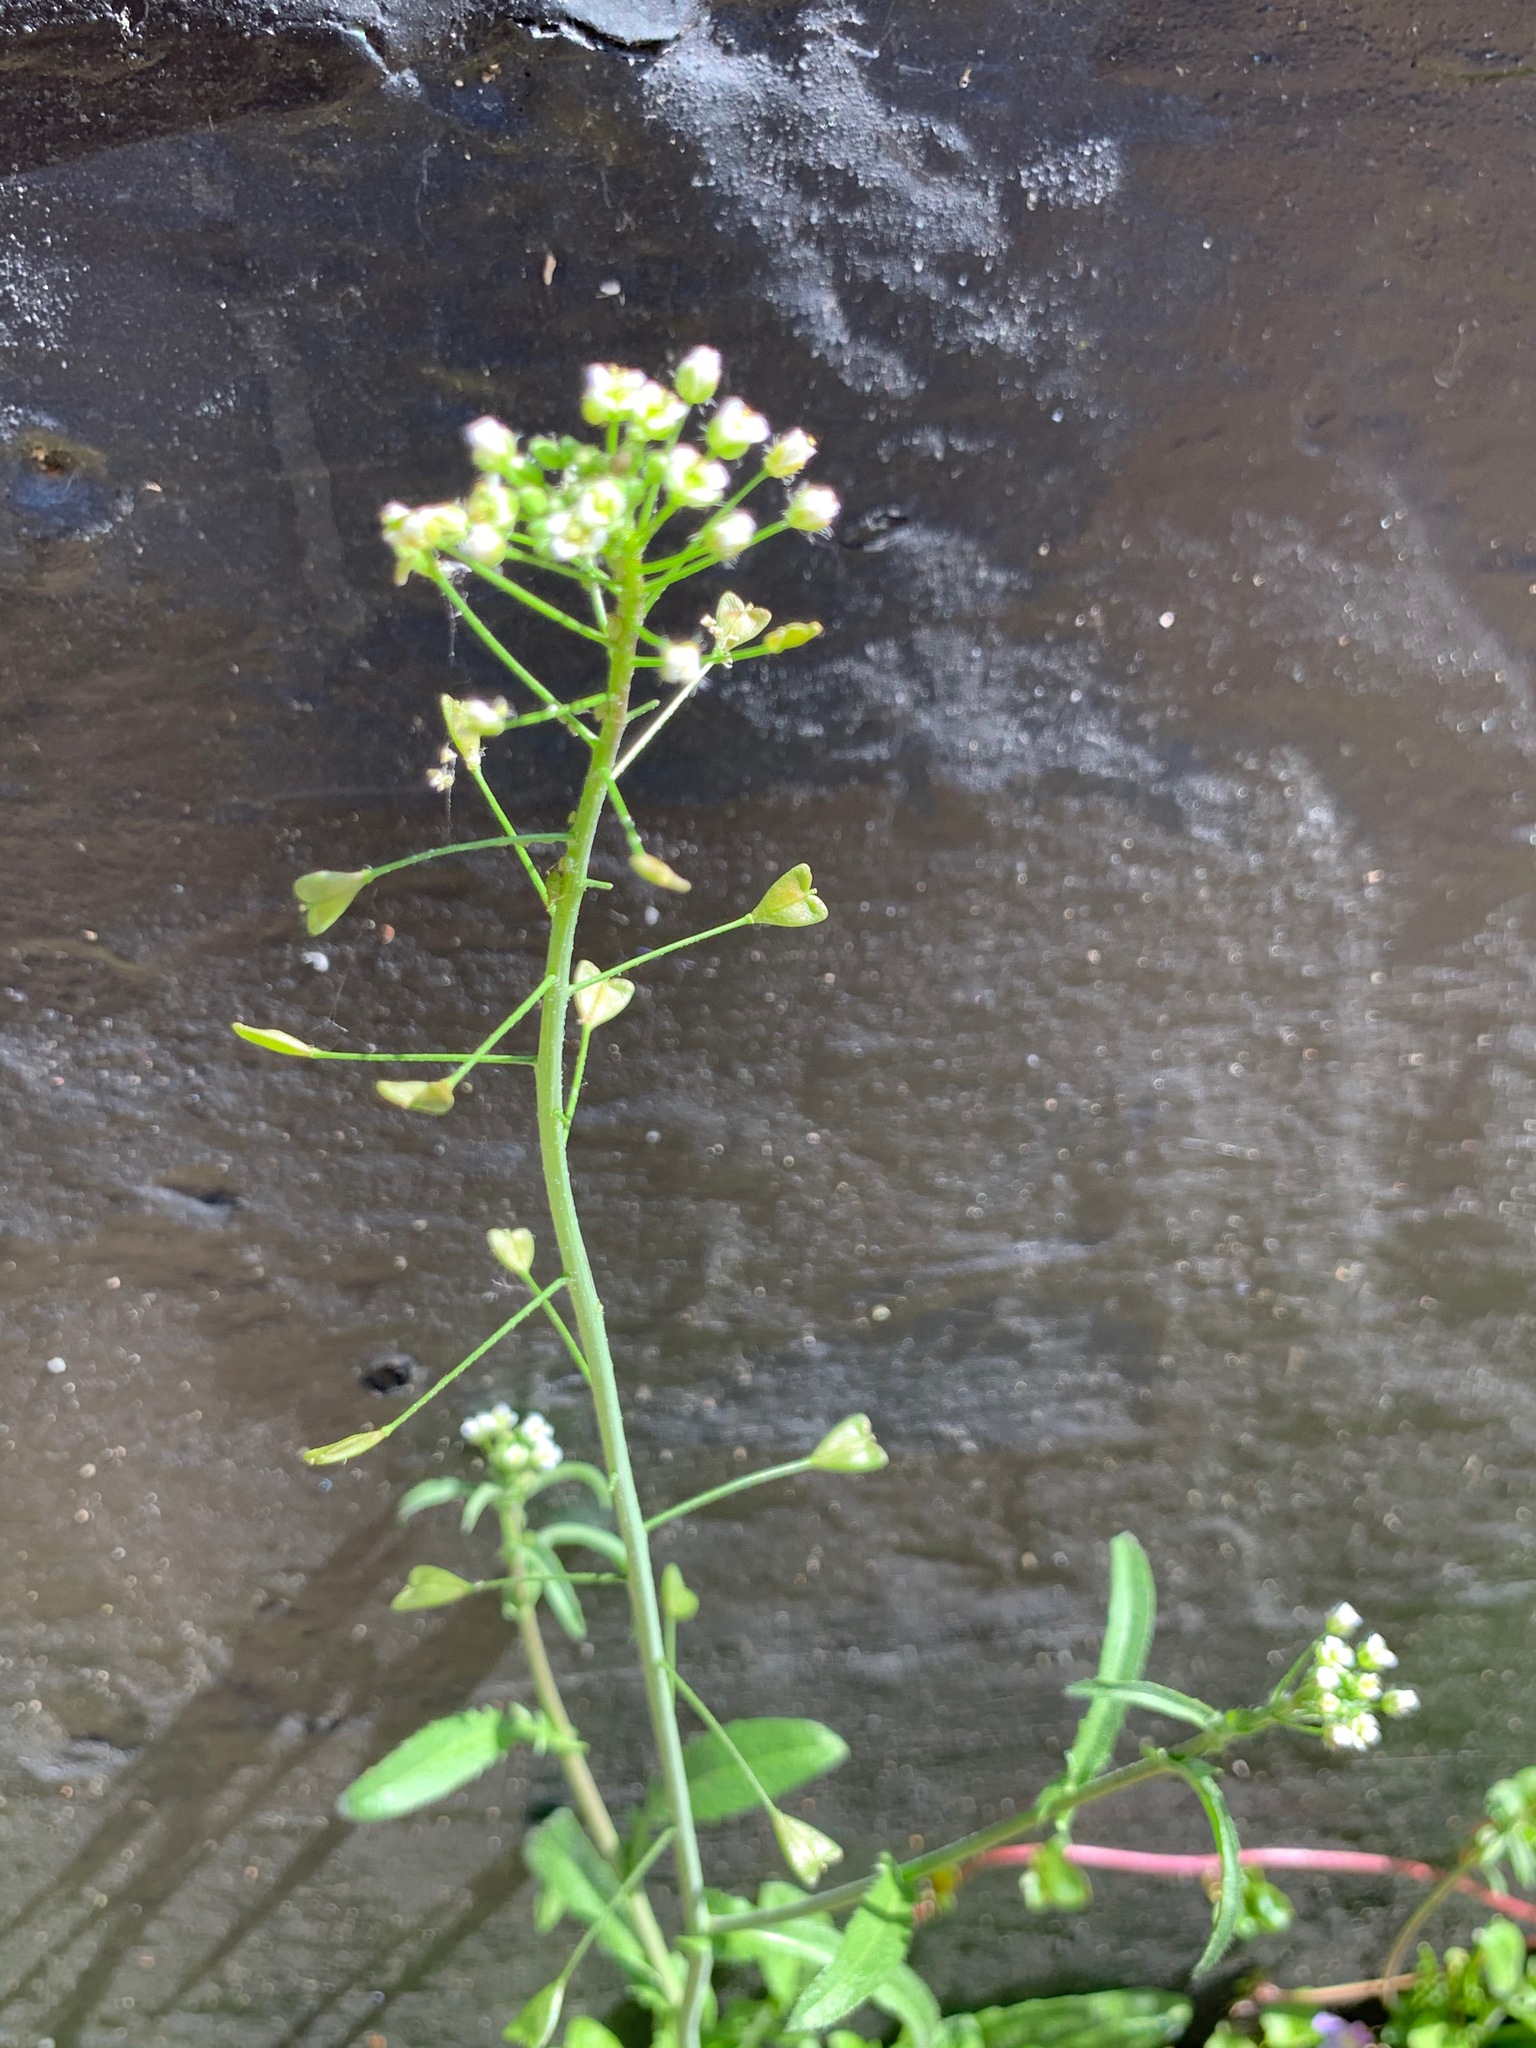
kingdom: Plantae
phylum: Tracheophyta
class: Magnoliopsida
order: Brassicales
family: Brassicaceae
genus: Capsella
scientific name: Capsella bursa-pastoris
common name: Shepherd's purse
